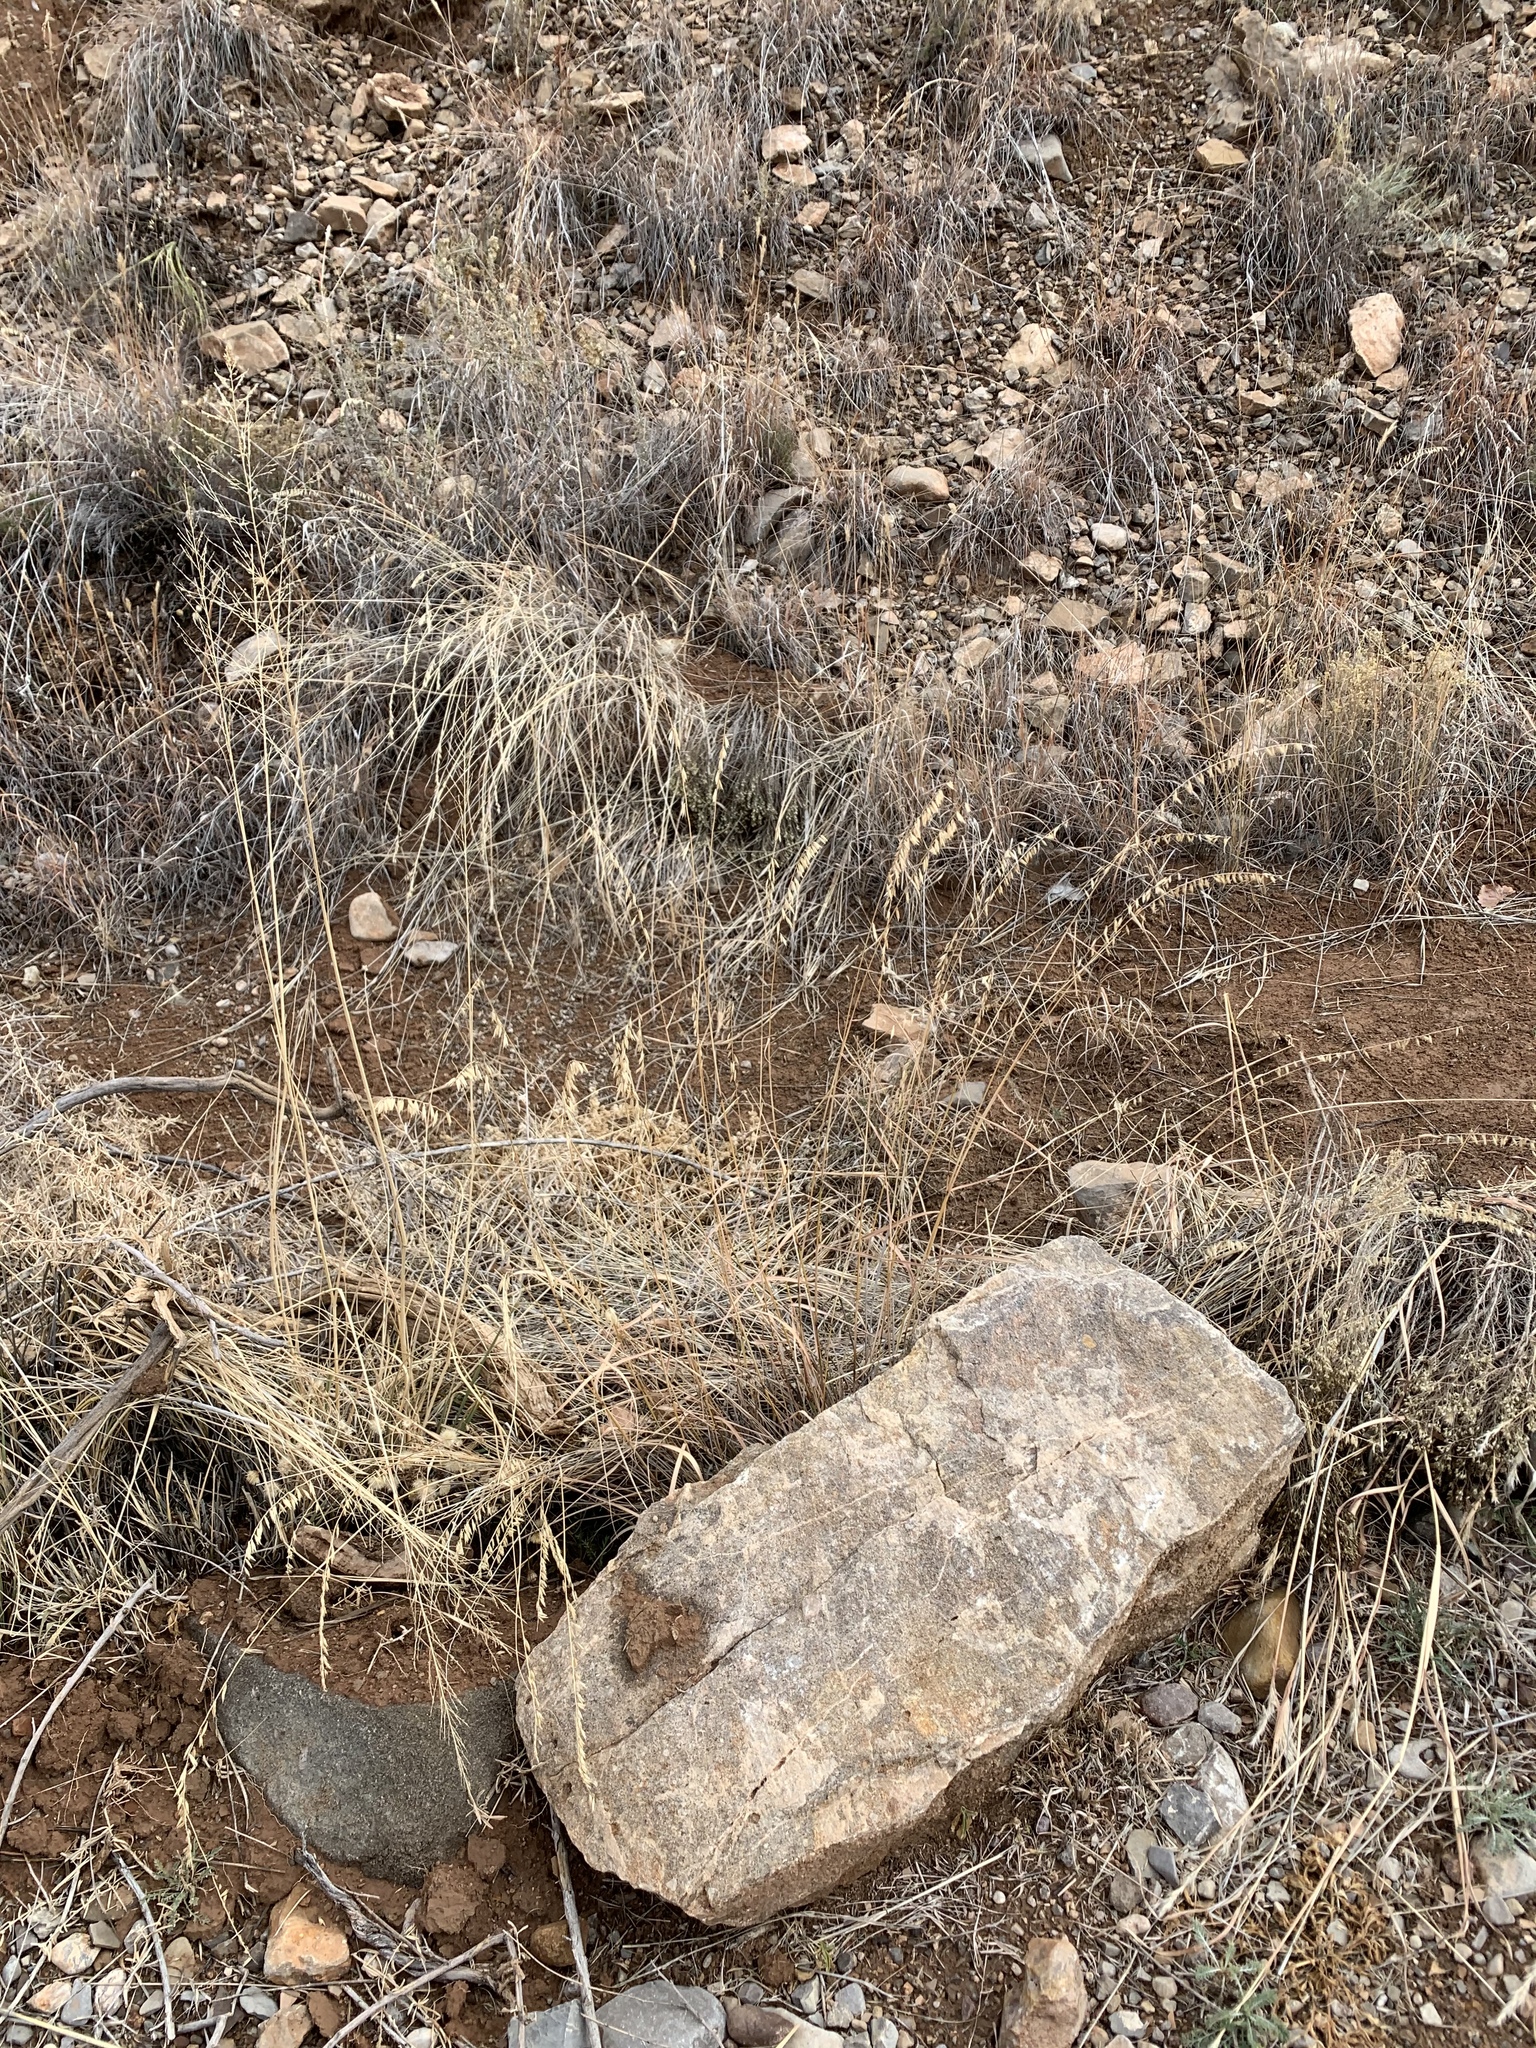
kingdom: Plantae
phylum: Tracheophyta
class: Liliopsida
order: Poales
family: Poaceae
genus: Bouteloua
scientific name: Bouteloua curtipendula
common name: Side-oats grama
